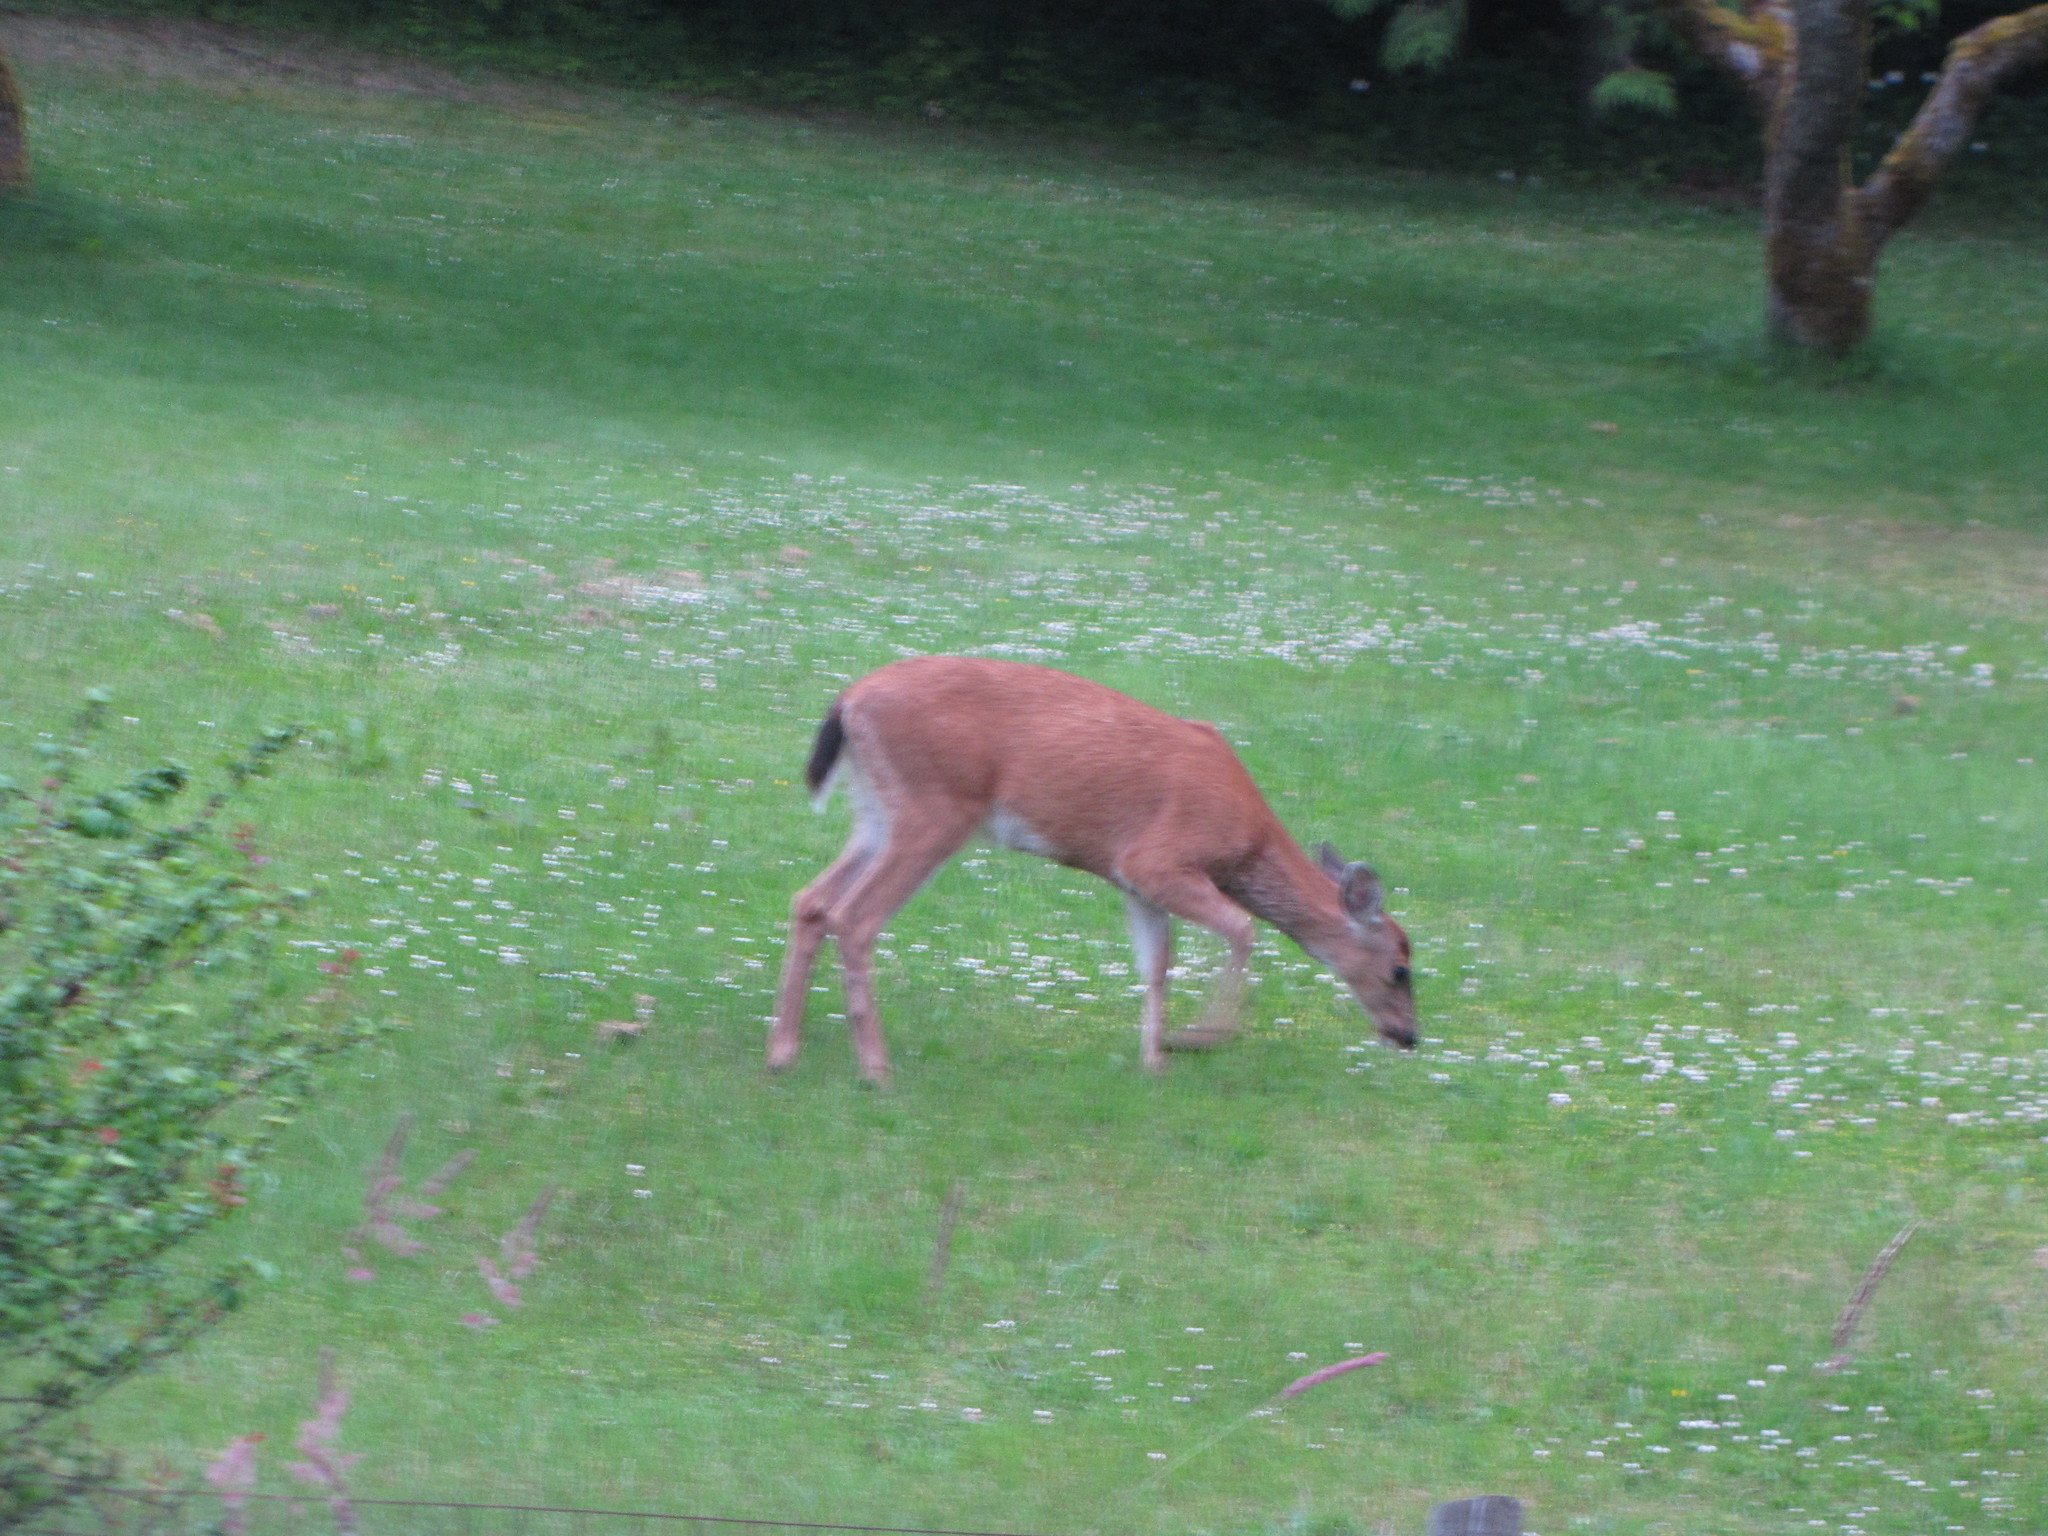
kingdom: Animalia
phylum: Chordata
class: Mammalia
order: Artiodactyla
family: Cervidae
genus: Odocoileus
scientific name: Odocoileus hemionus
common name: Mule deer
